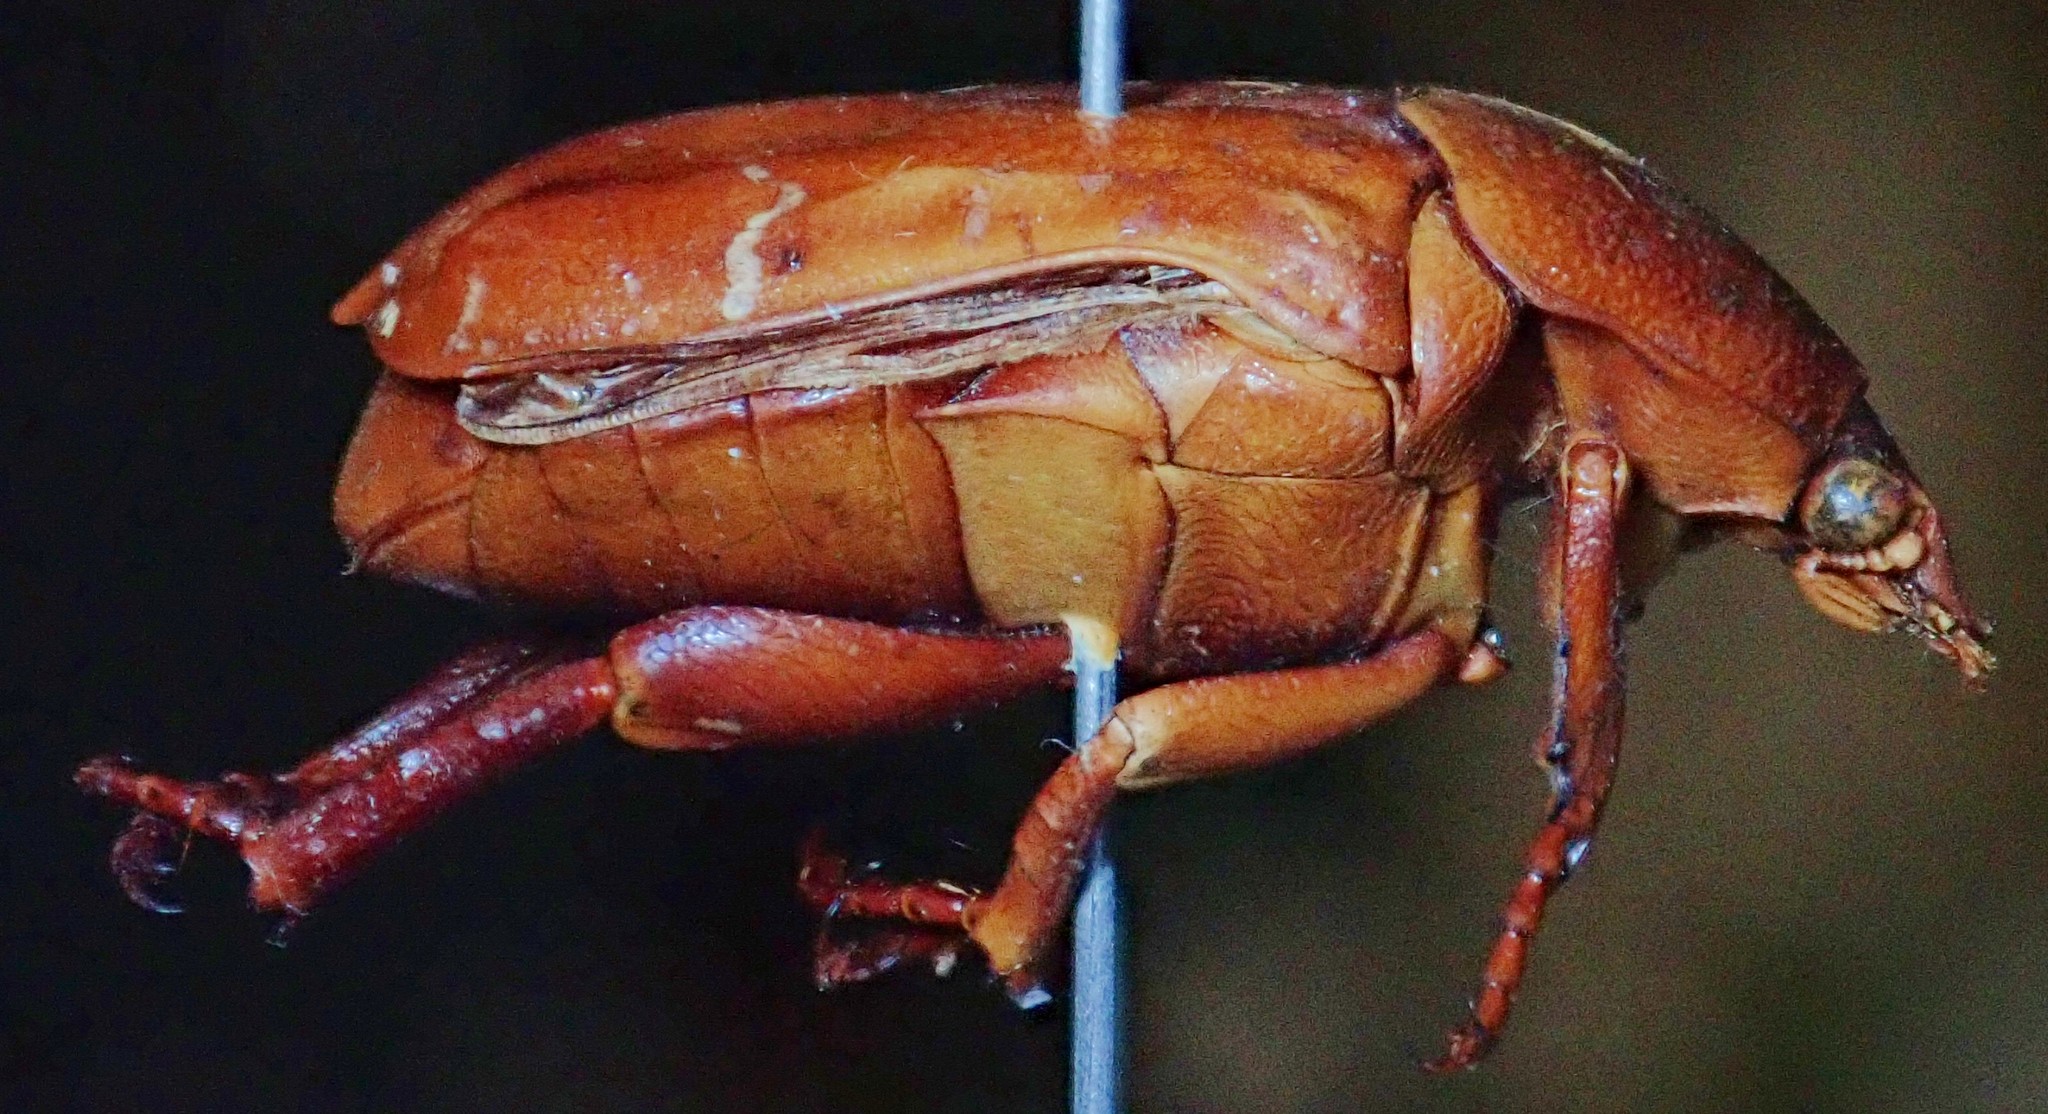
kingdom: Animalia
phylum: Arthropoda
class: Insecta
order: Coleoptera
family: Scarabaeidae
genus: Protaetia
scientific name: Protaetia orientalis
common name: Oriental flower beetle
